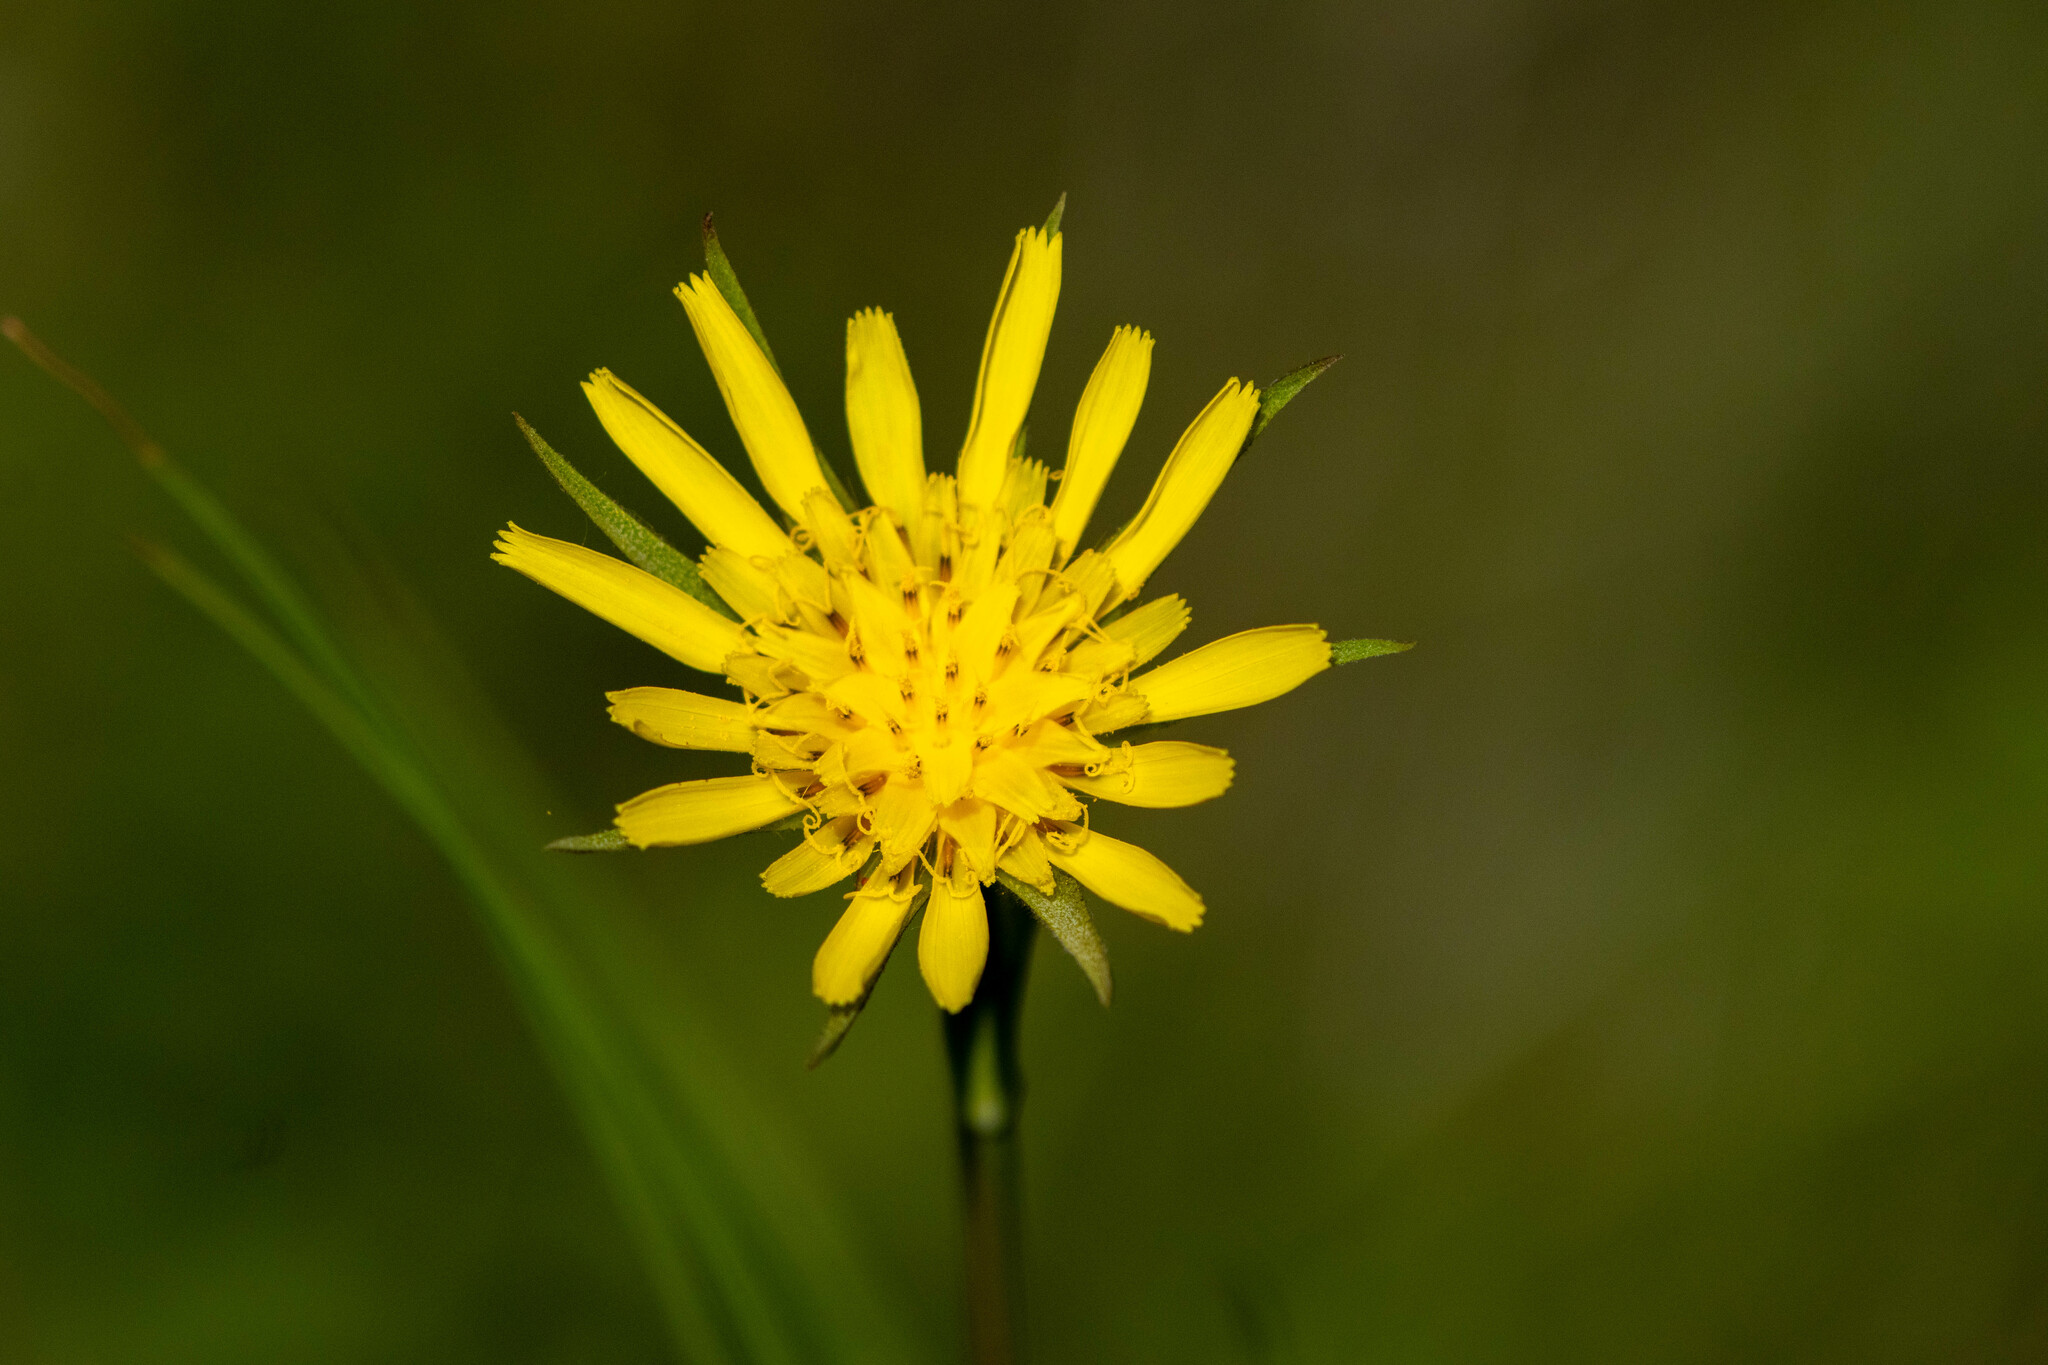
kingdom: Plantae
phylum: Tracheophyta
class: Magnoliopsida
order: Asterales
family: Asteraceae
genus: Tragopogon
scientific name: Tragopogon dubius
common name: Yellow salsify
